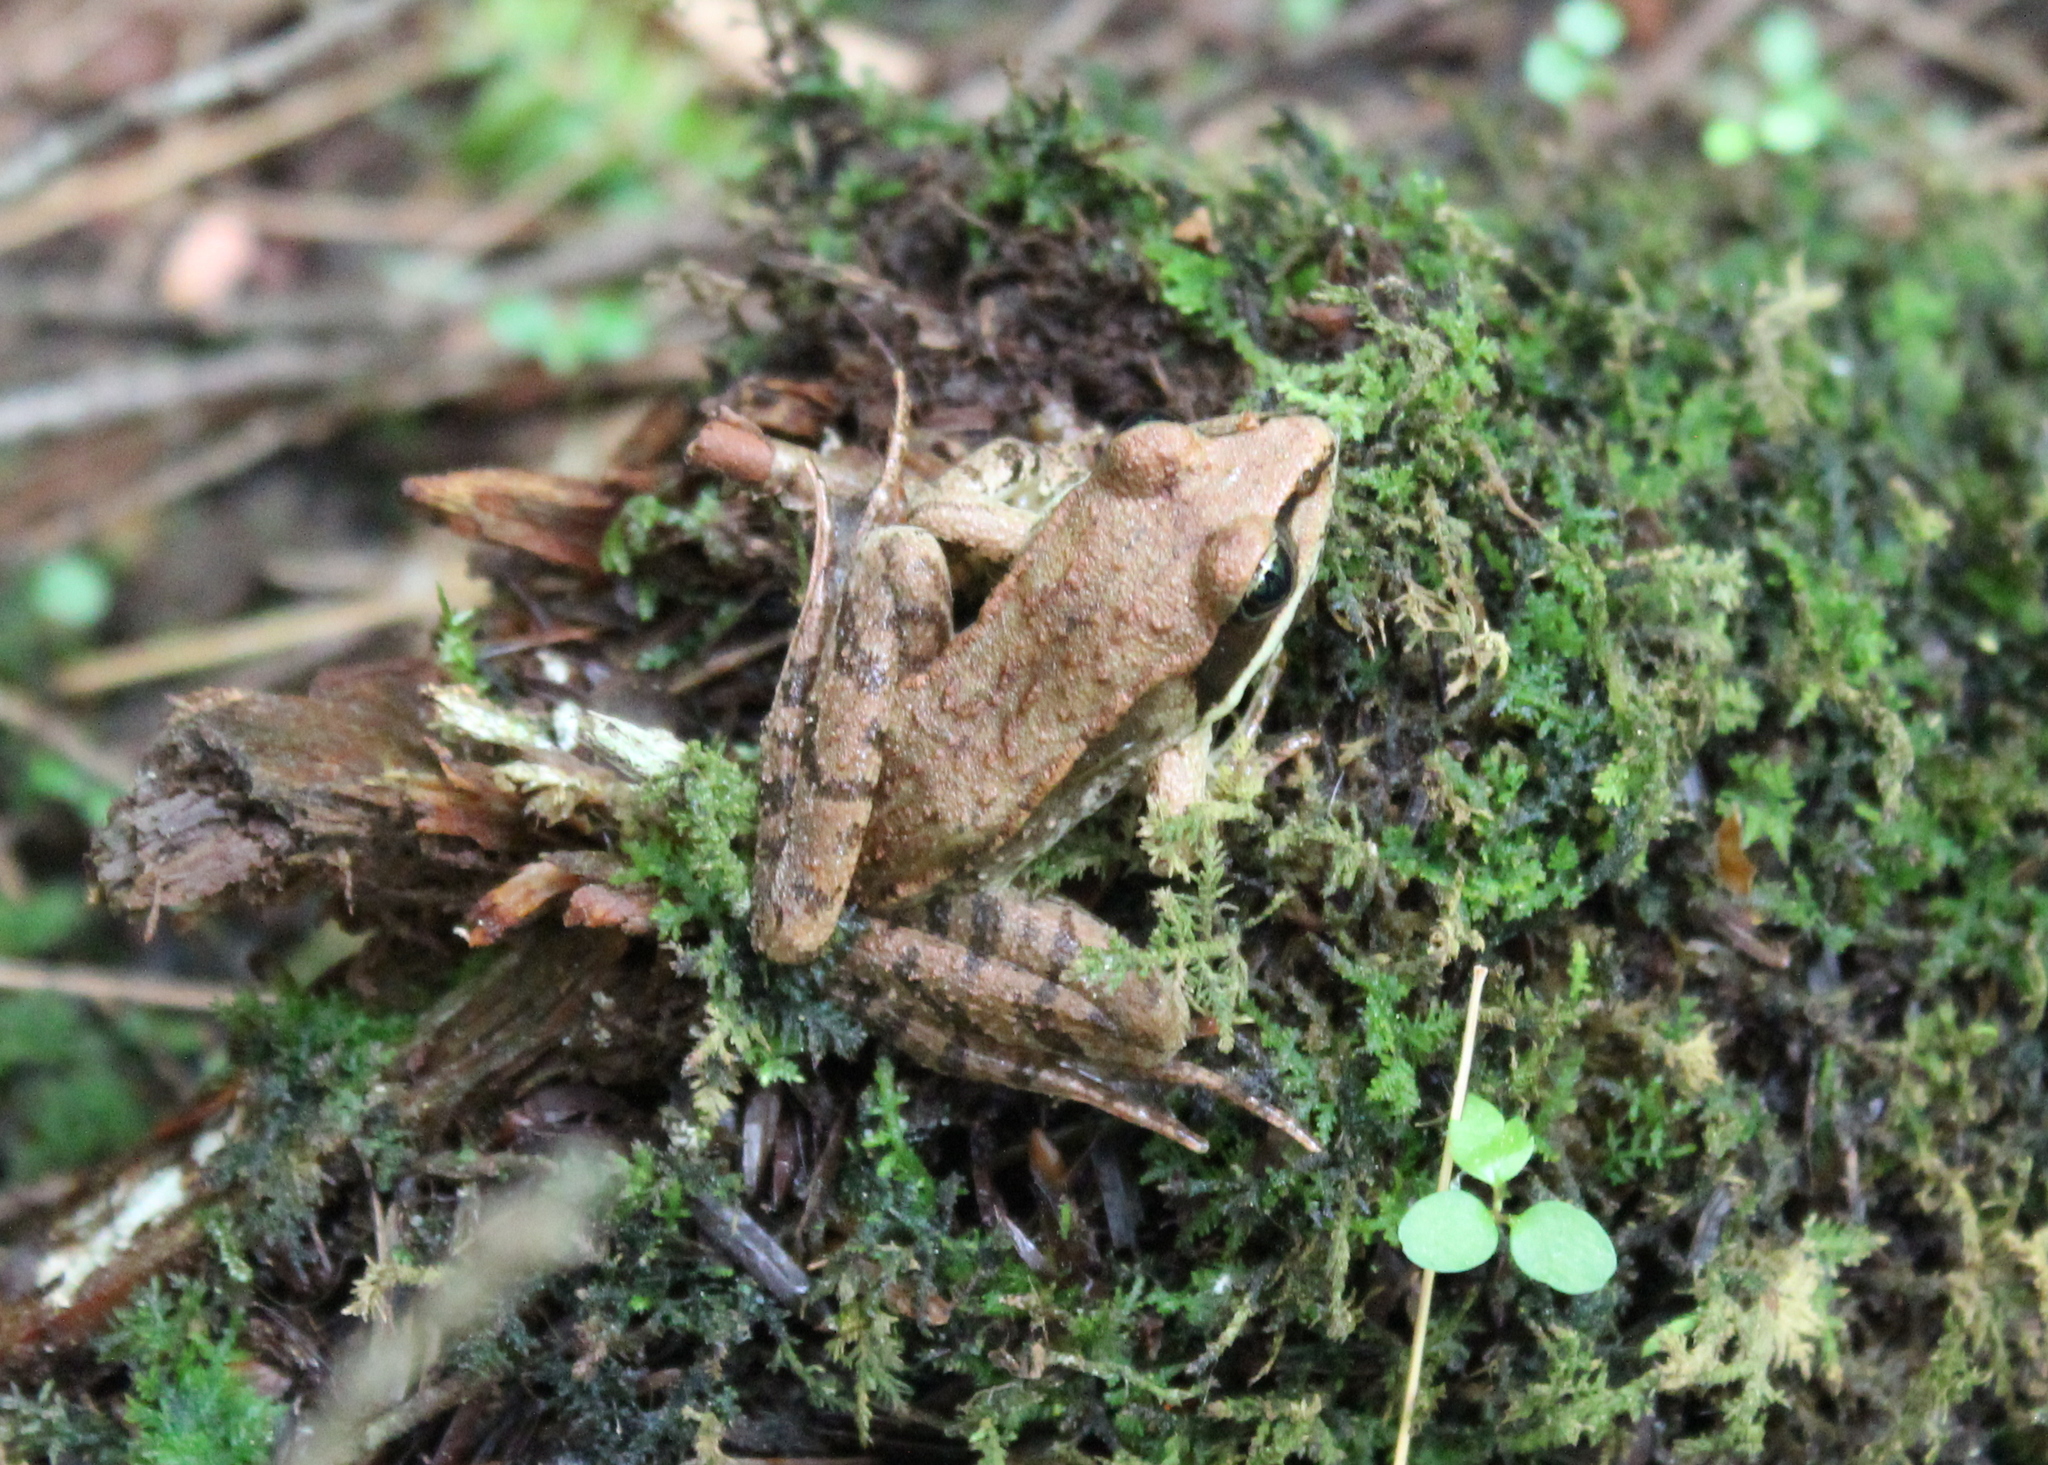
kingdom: Animalia
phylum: Chordata
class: Amphibia
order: Anura
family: Ranidae
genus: Lithobates
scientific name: Lithobates sylvaticus
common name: Wood frog
